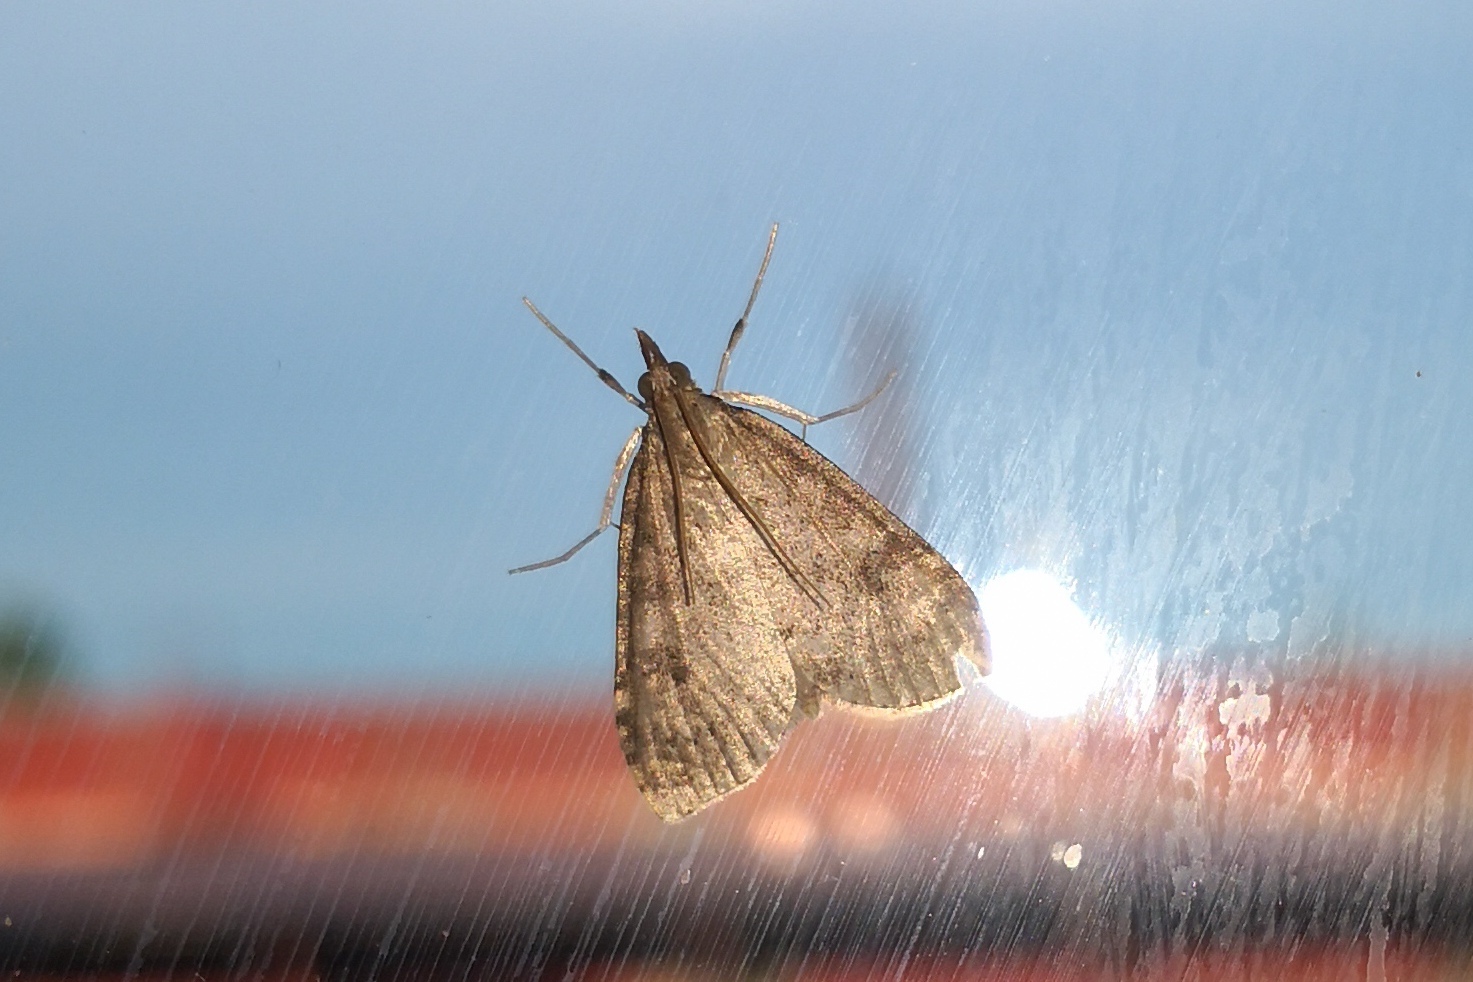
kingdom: Animalia
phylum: Arthropoda
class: Insecta
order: Lepidoptera
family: Crambidae
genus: Udea
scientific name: Udea prunalis
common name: Dusky pearl
